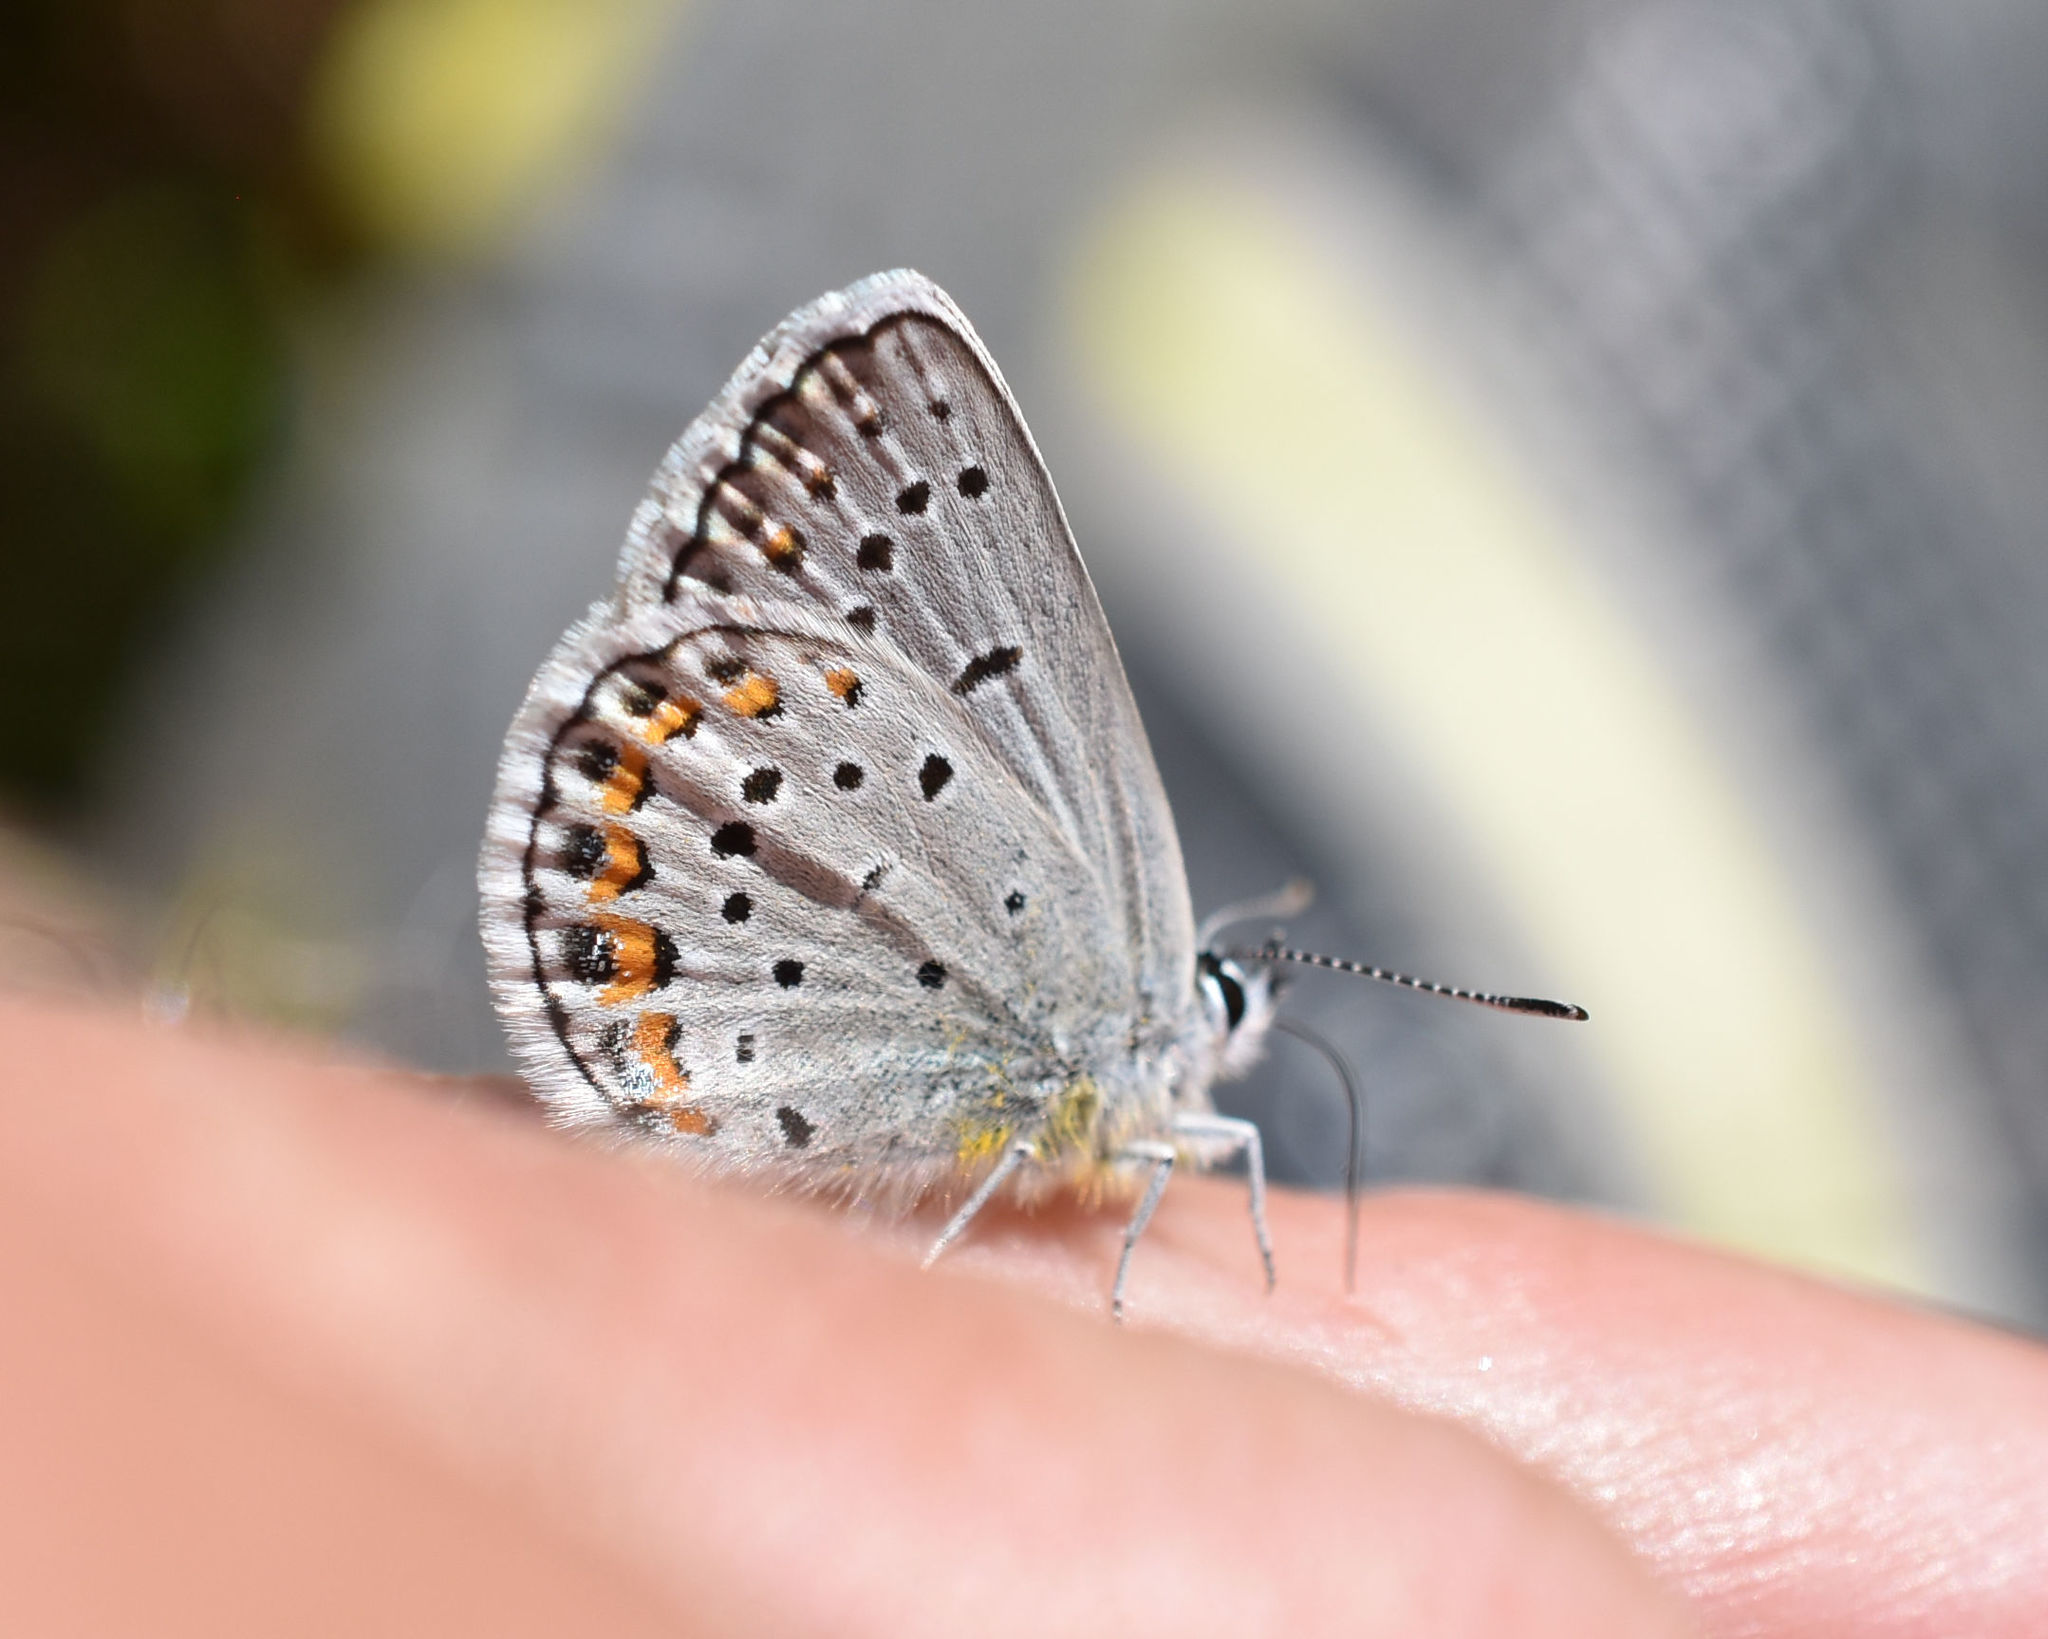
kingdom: Animalia
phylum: Arthropoda
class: Insecta
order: Lepidoptera
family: Lycaenidae
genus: Plebejus
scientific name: Plebejus samuelis
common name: Karner blue
